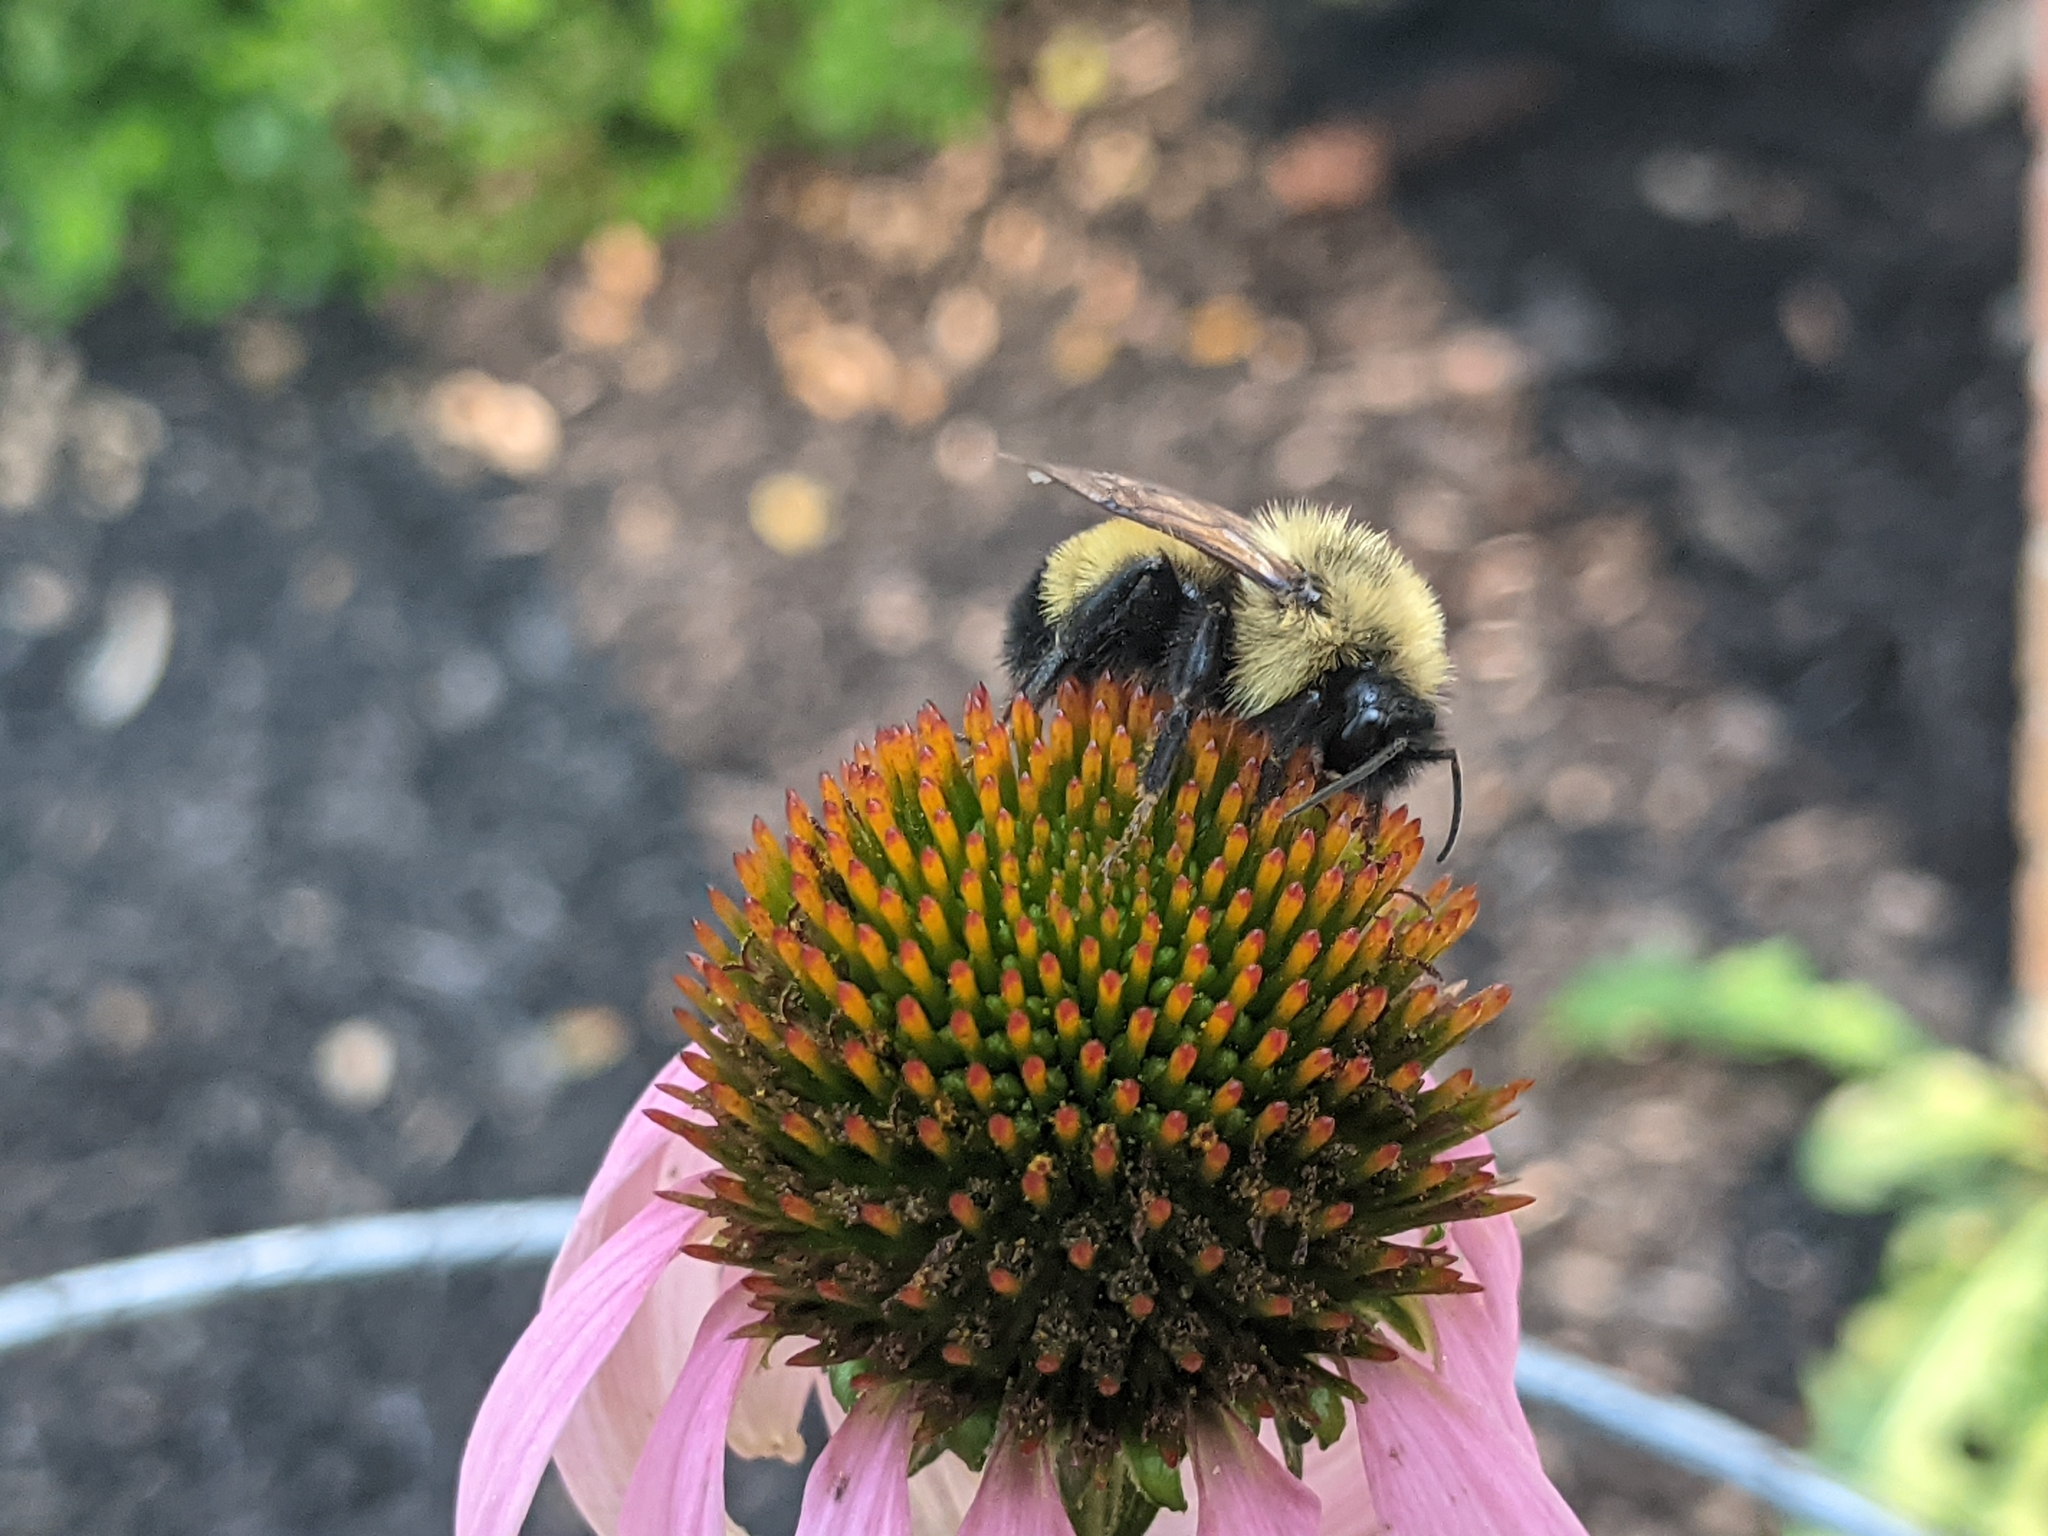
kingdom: Animalia
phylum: Arthropoda
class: Insecta
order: Hymenoptera
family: Apidae
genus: Bombus
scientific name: Bombus citrinus
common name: Lemon cuckoo bumble bee
